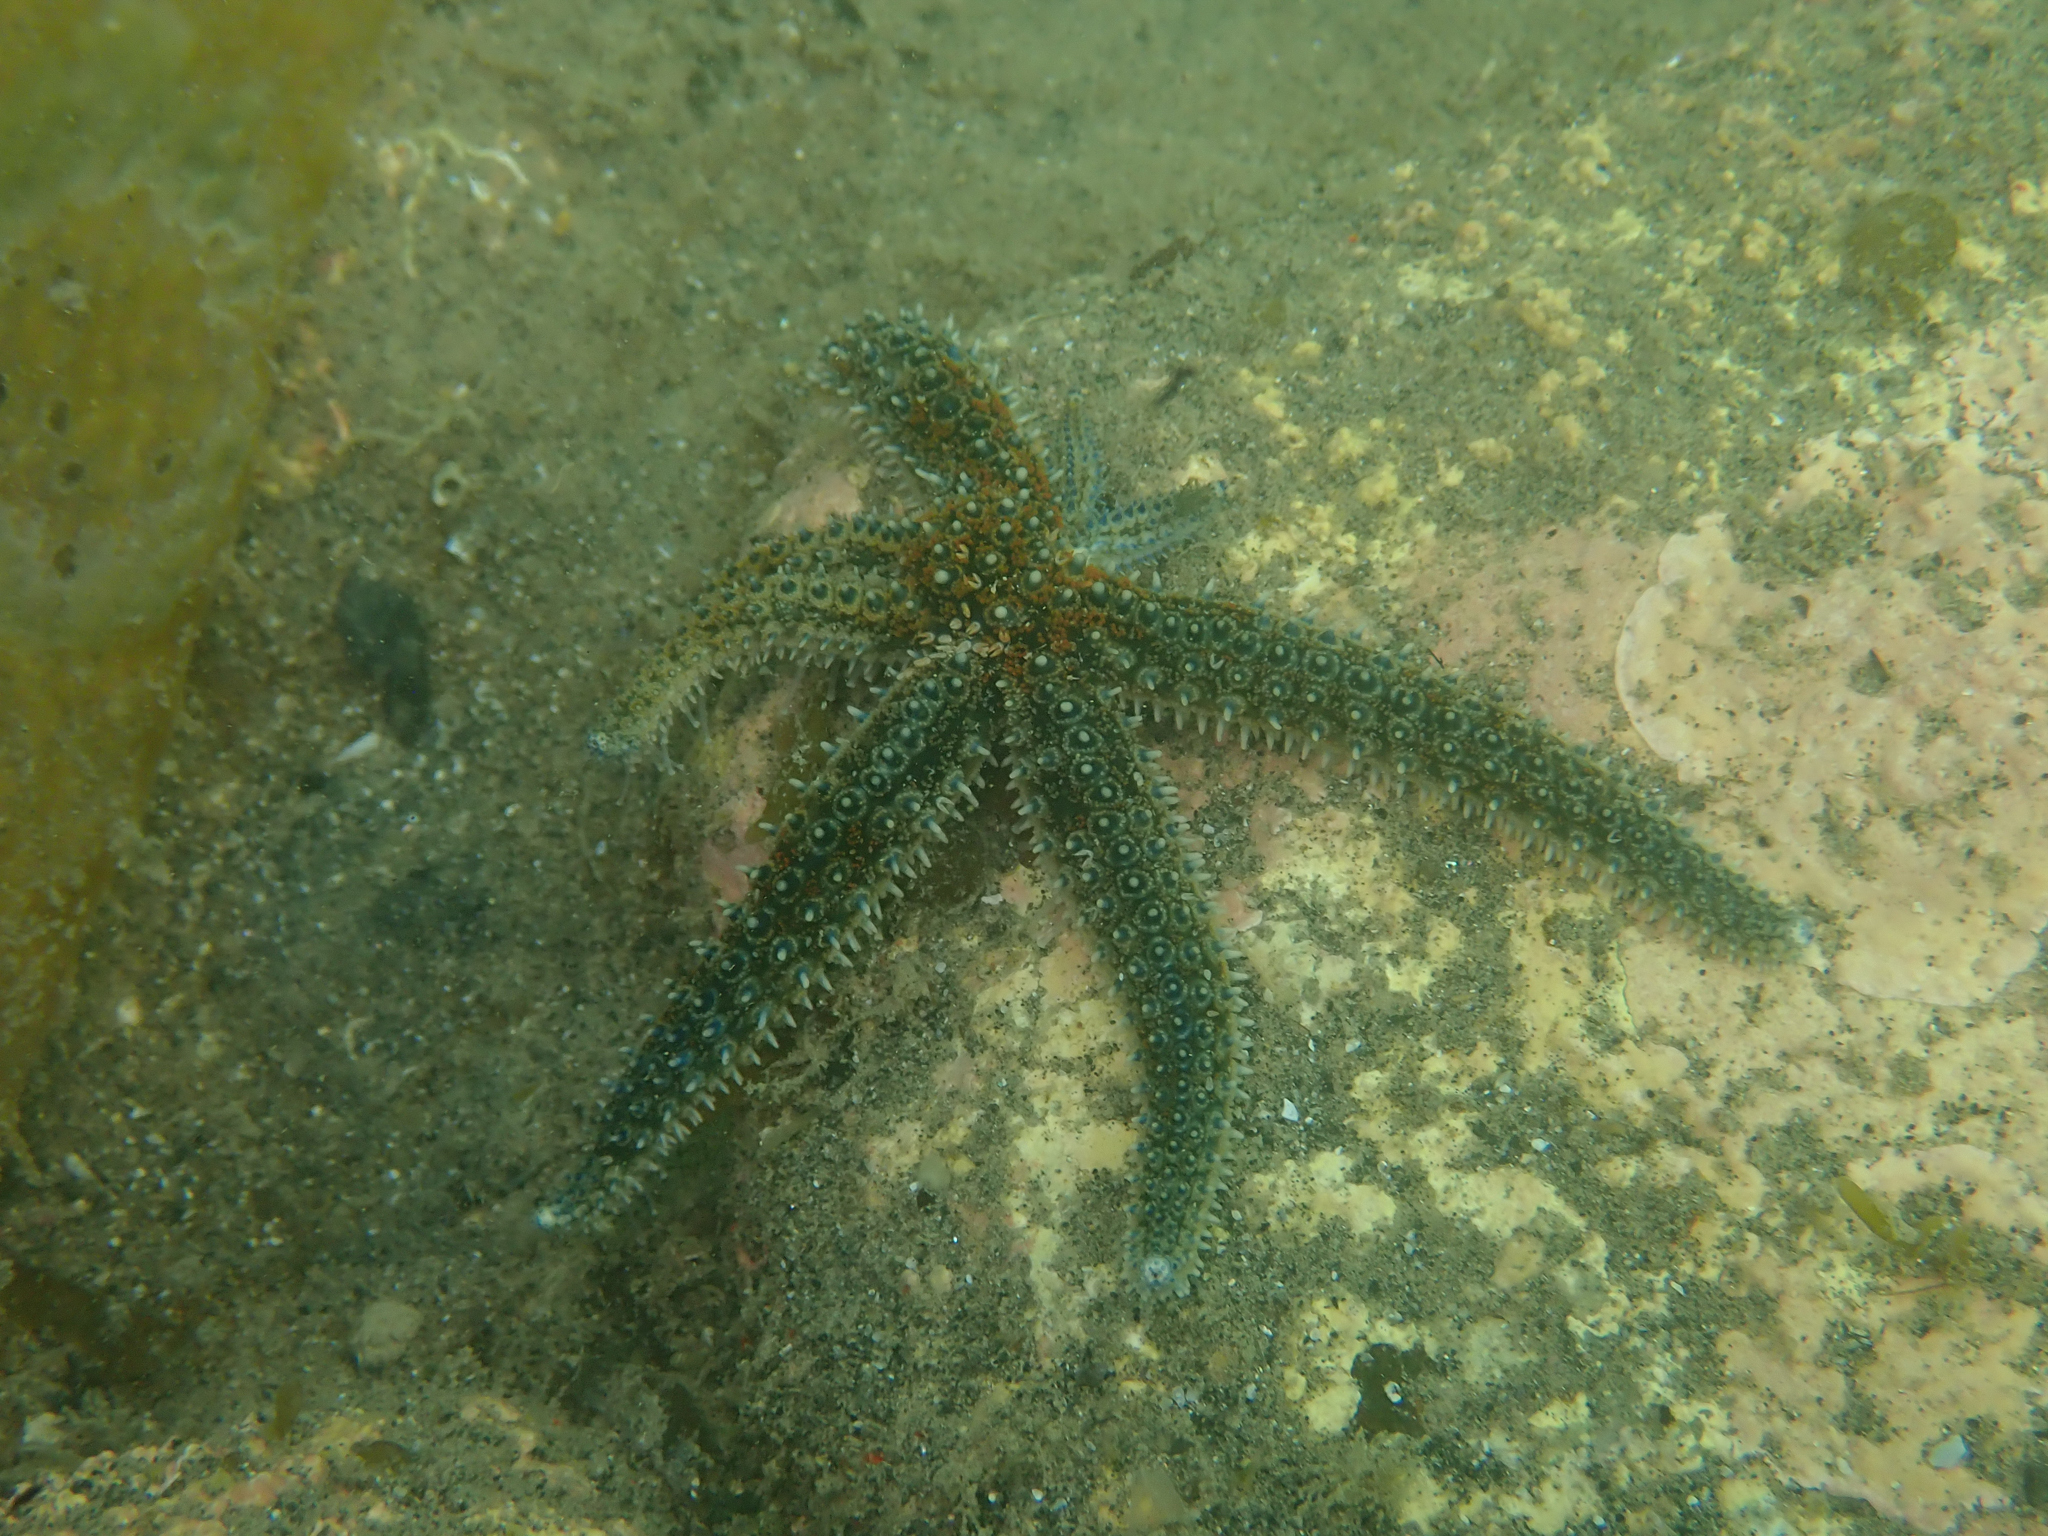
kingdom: Animalia
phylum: Echinodermata
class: Asteroidea
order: Forcipulatida
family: Asteriidae
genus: Coscinasterias
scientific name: Coscinasterias muricata
